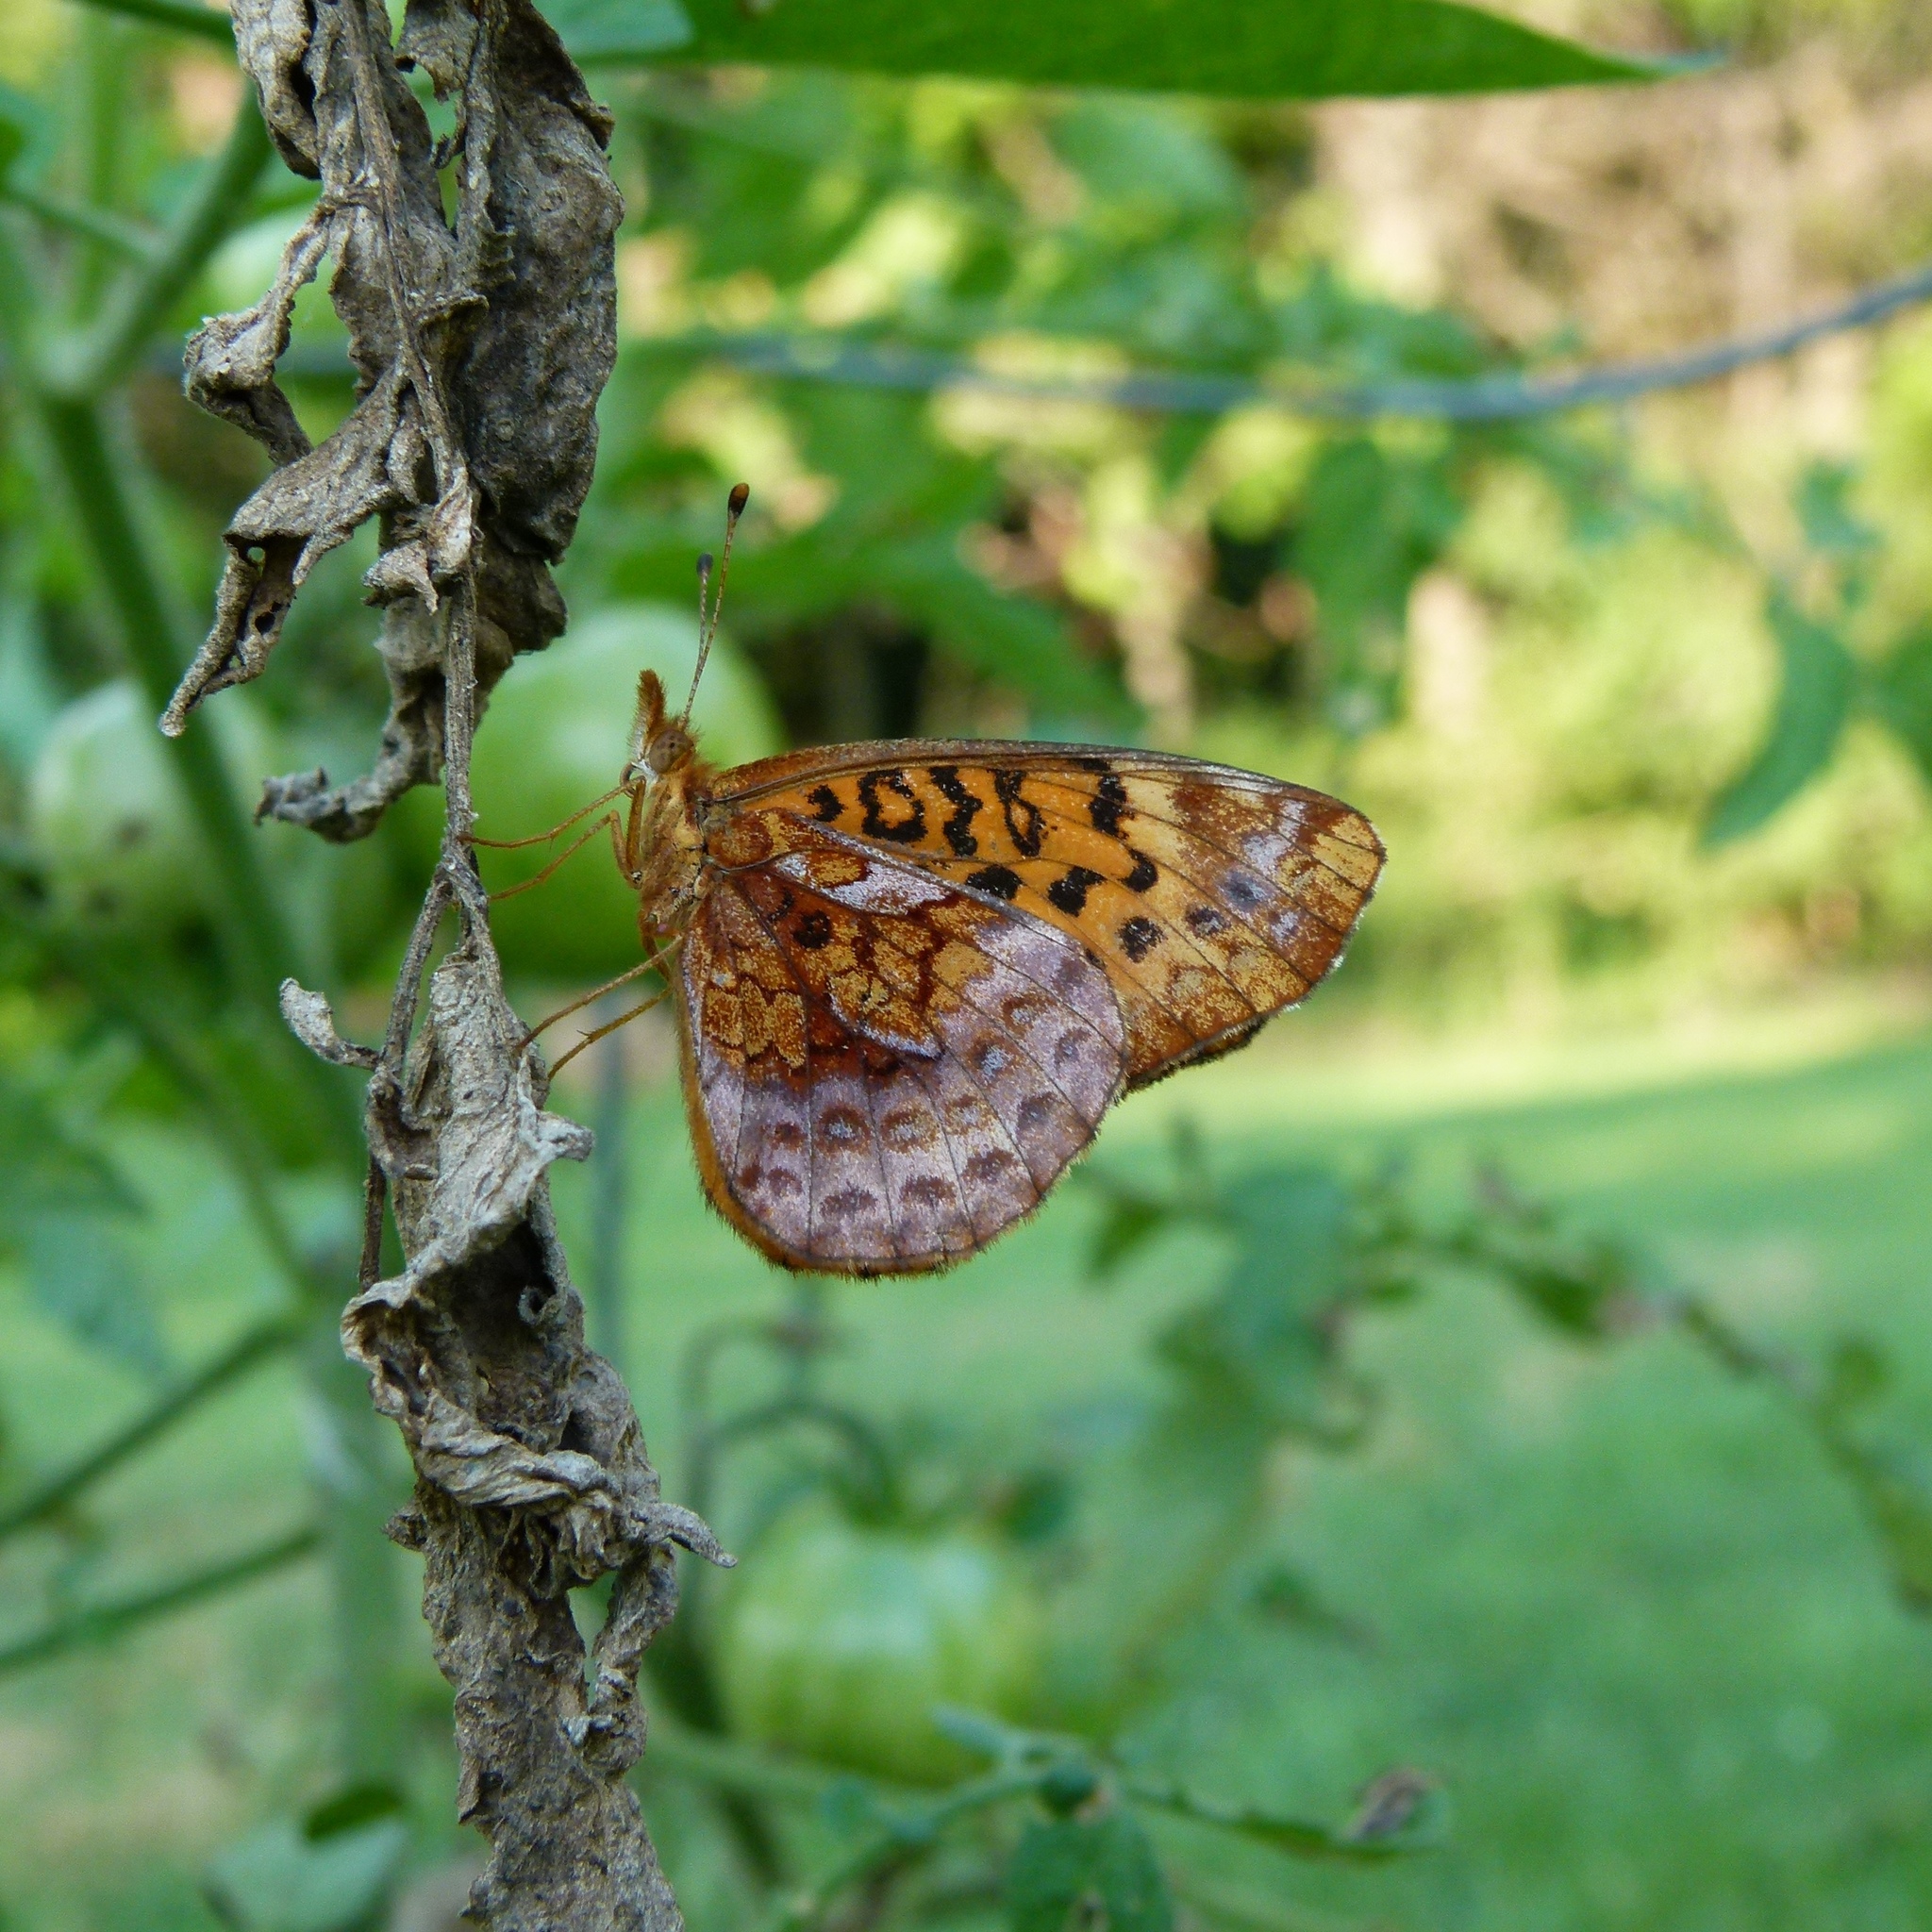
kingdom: Animalia
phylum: Arthropoda
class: Insecta
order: Lepidoptera
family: Nymphalidae
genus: Clossiana
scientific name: Clossiana toddi
